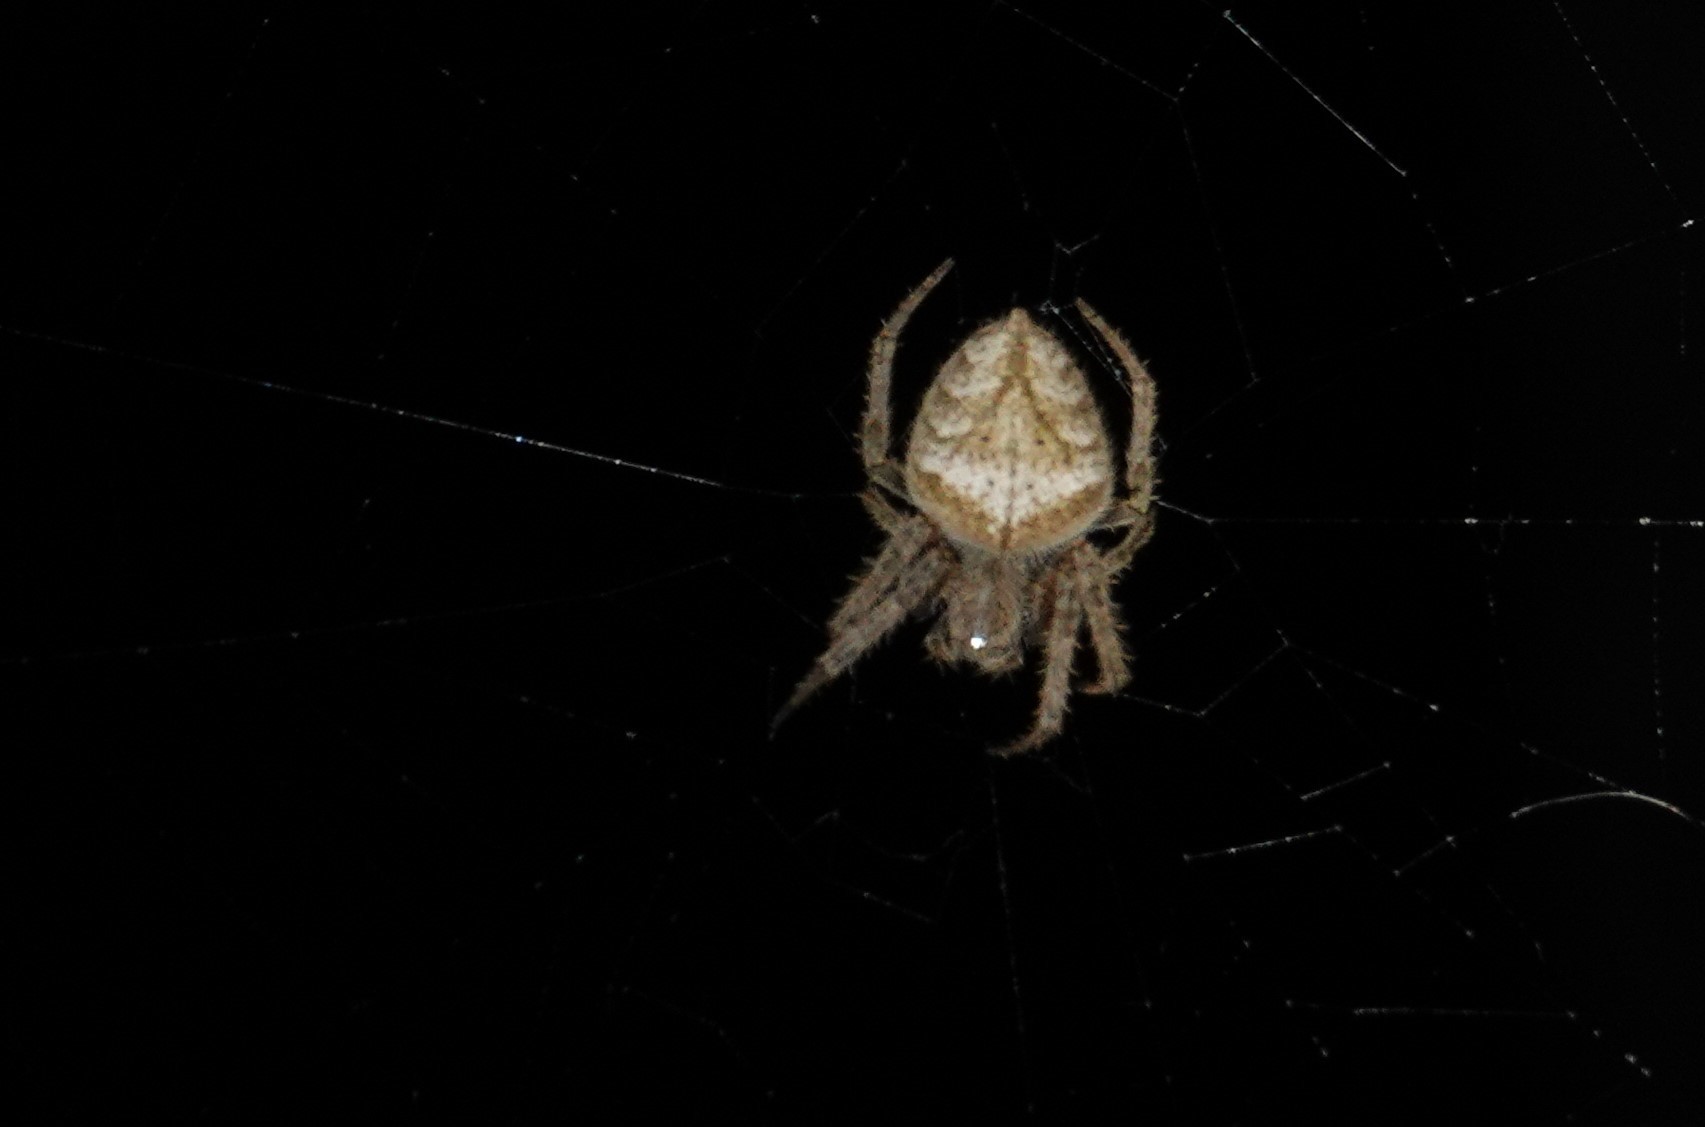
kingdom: Animalia
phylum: Arthropoda
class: Arachnida
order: Araneae
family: Araneidae
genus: Eriophora
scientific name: Eriophora edax
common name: Orb weavers
